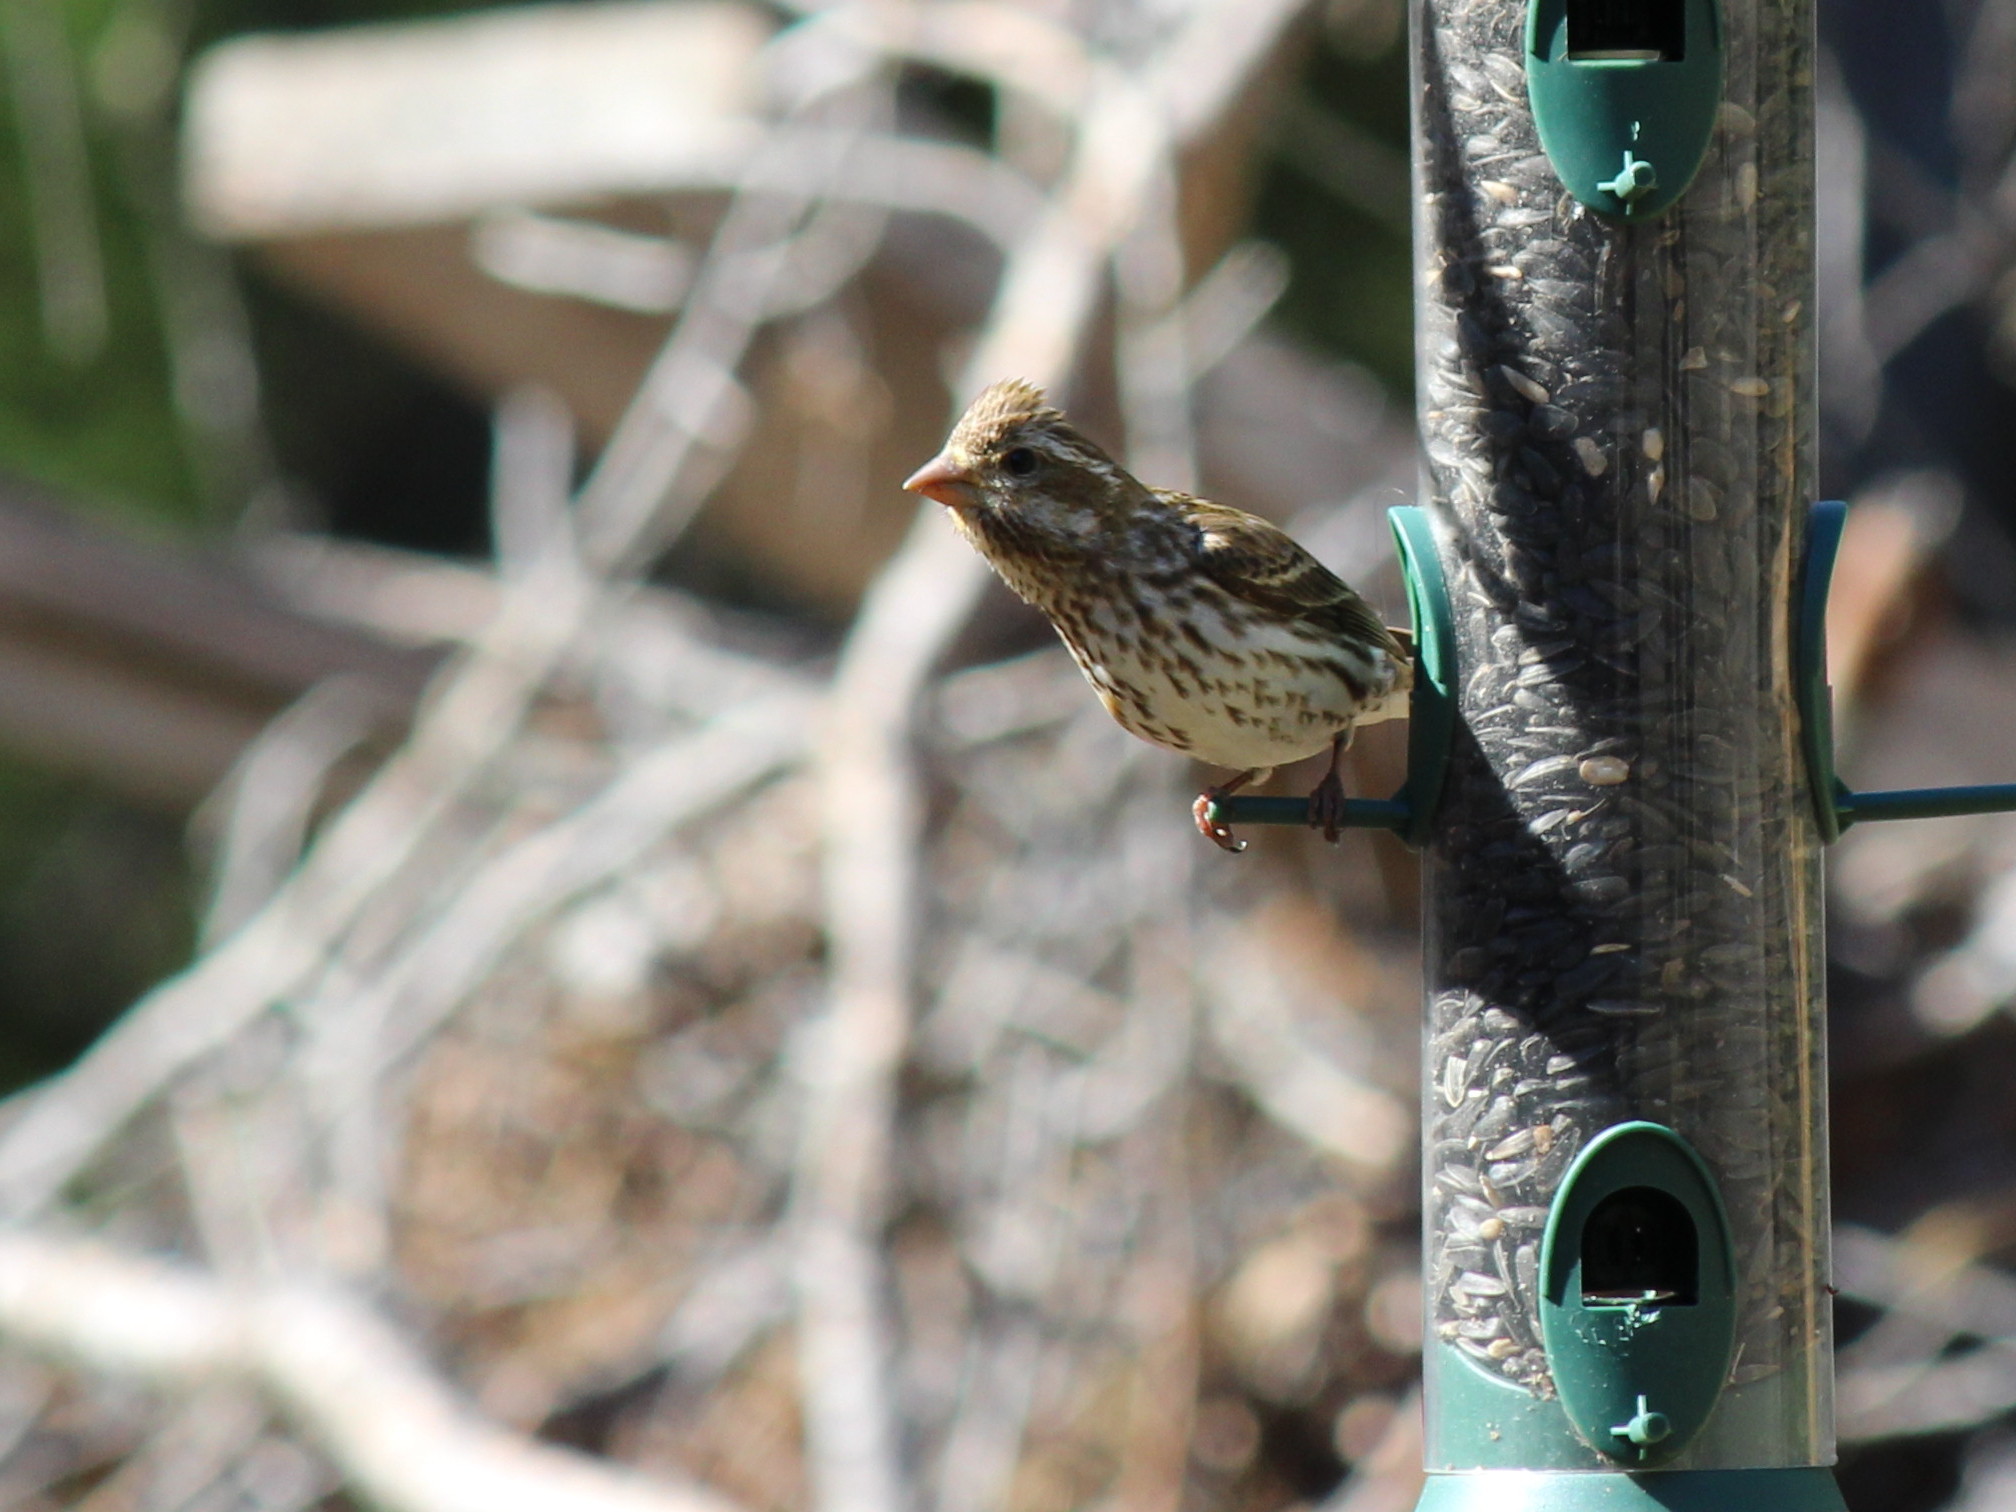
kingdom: Animalia
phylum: Chordata
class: Aves
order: Passeriformes
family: Fringillidae
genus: Haemorhous
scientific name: Haemorhous purpureus
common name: Purple finch
